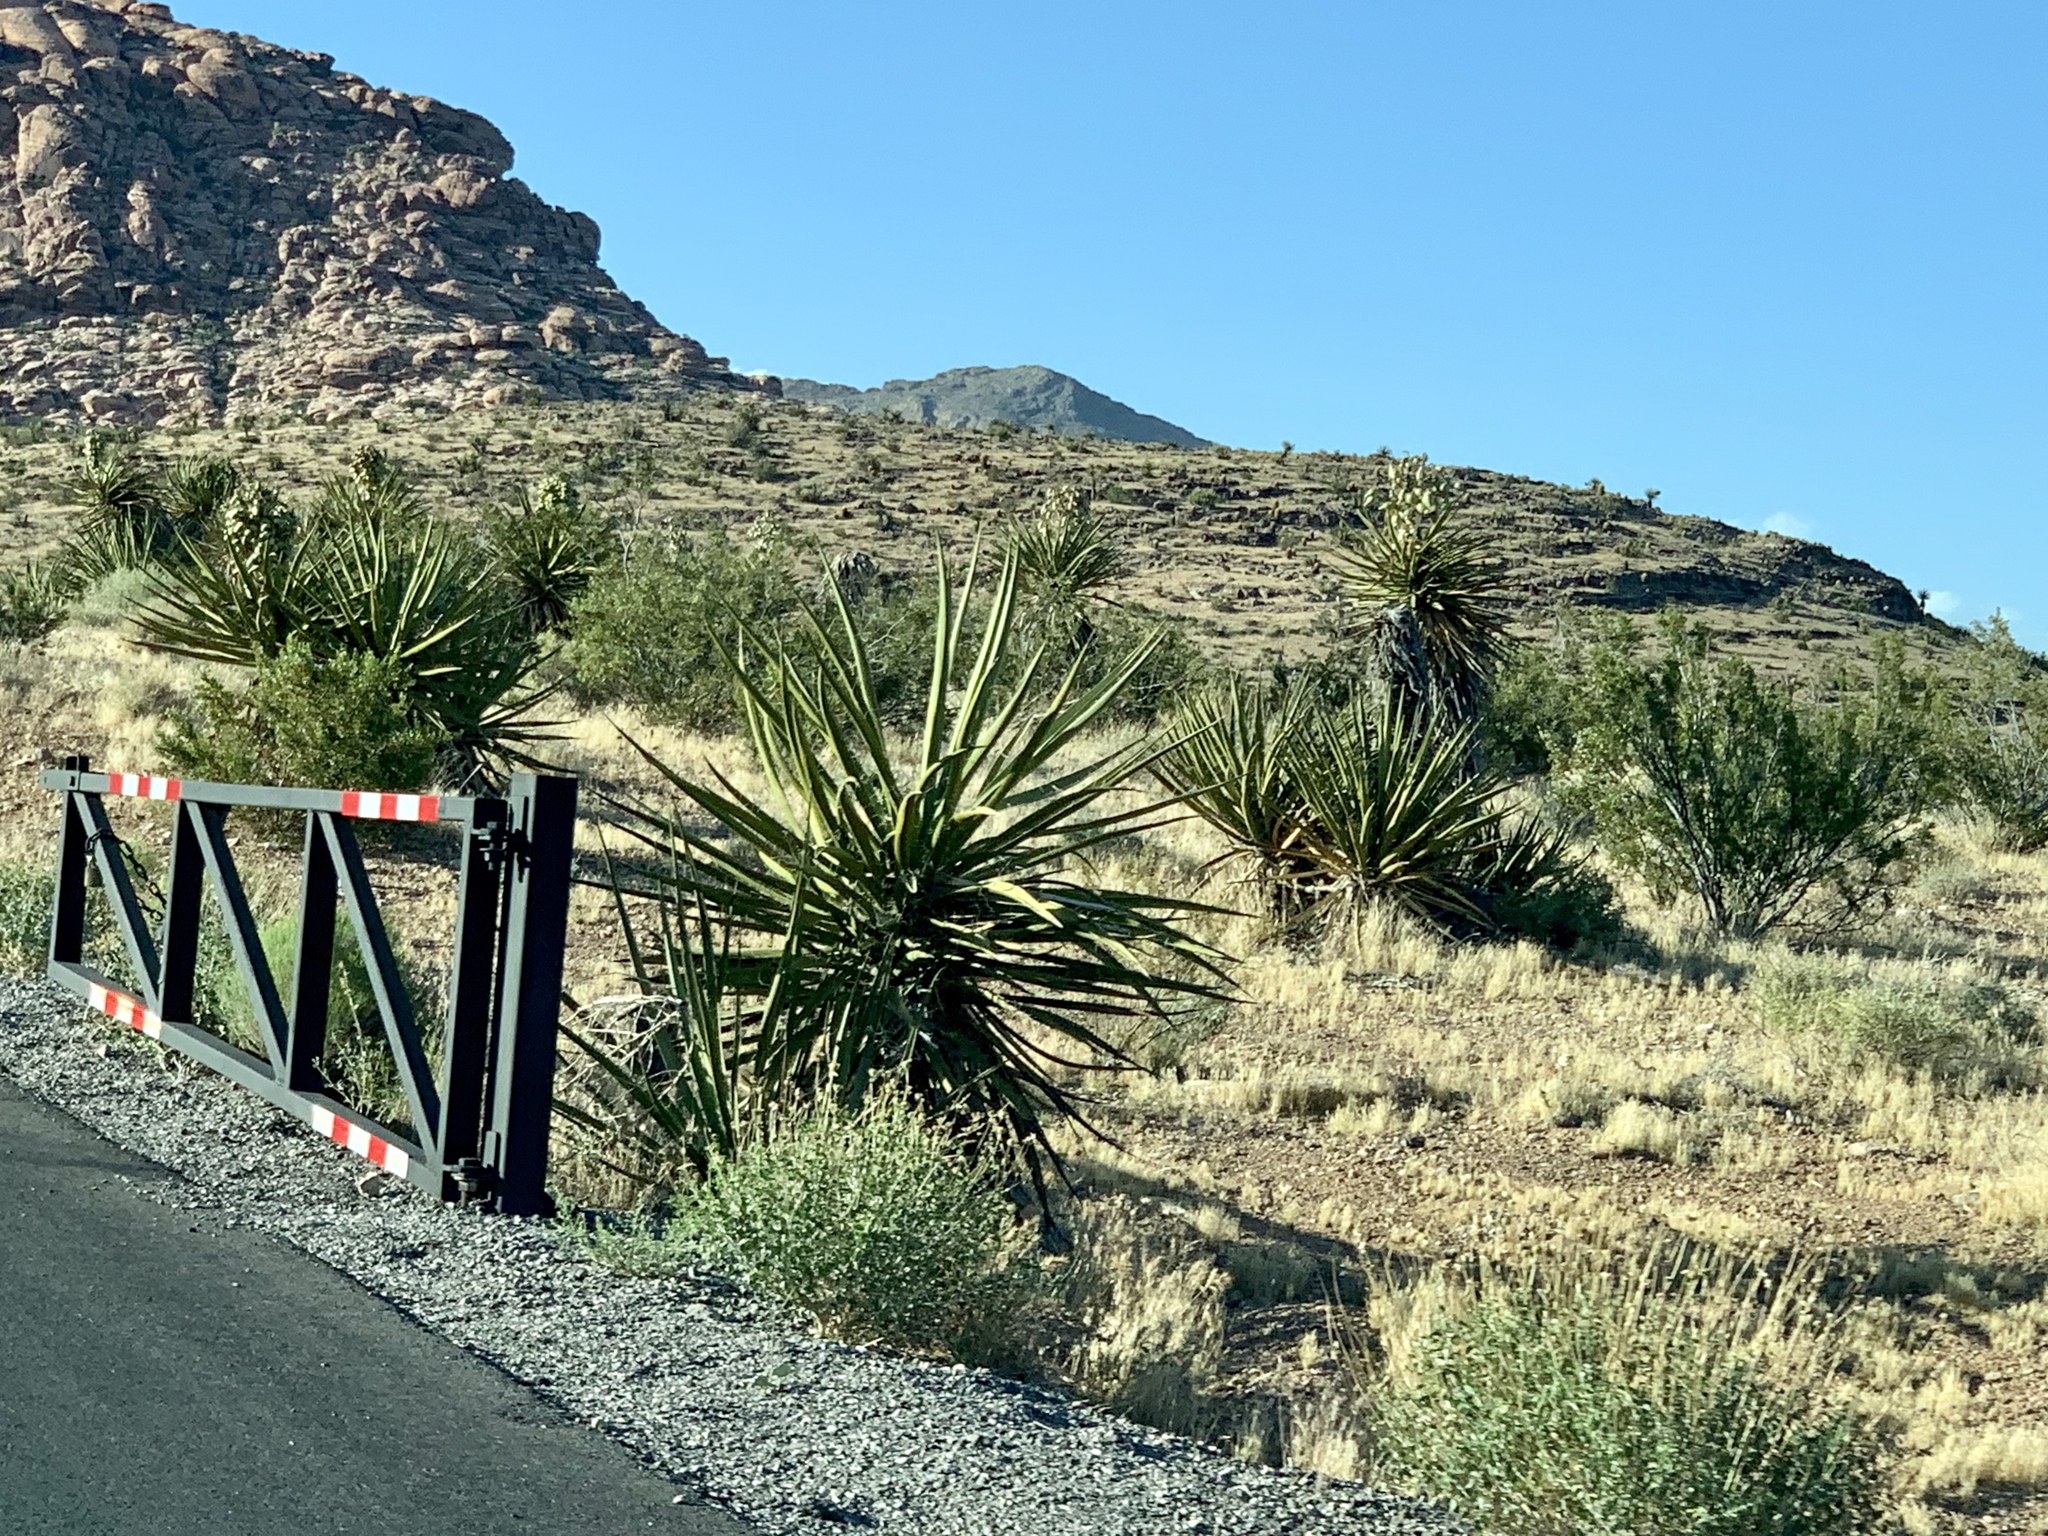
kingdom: Plantae
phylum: Tracheophyta
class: Liliopsida
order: Asparagales
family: Asparagaceae
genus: Yucca
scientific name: Yucca schidigera
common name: Mojave yucca
